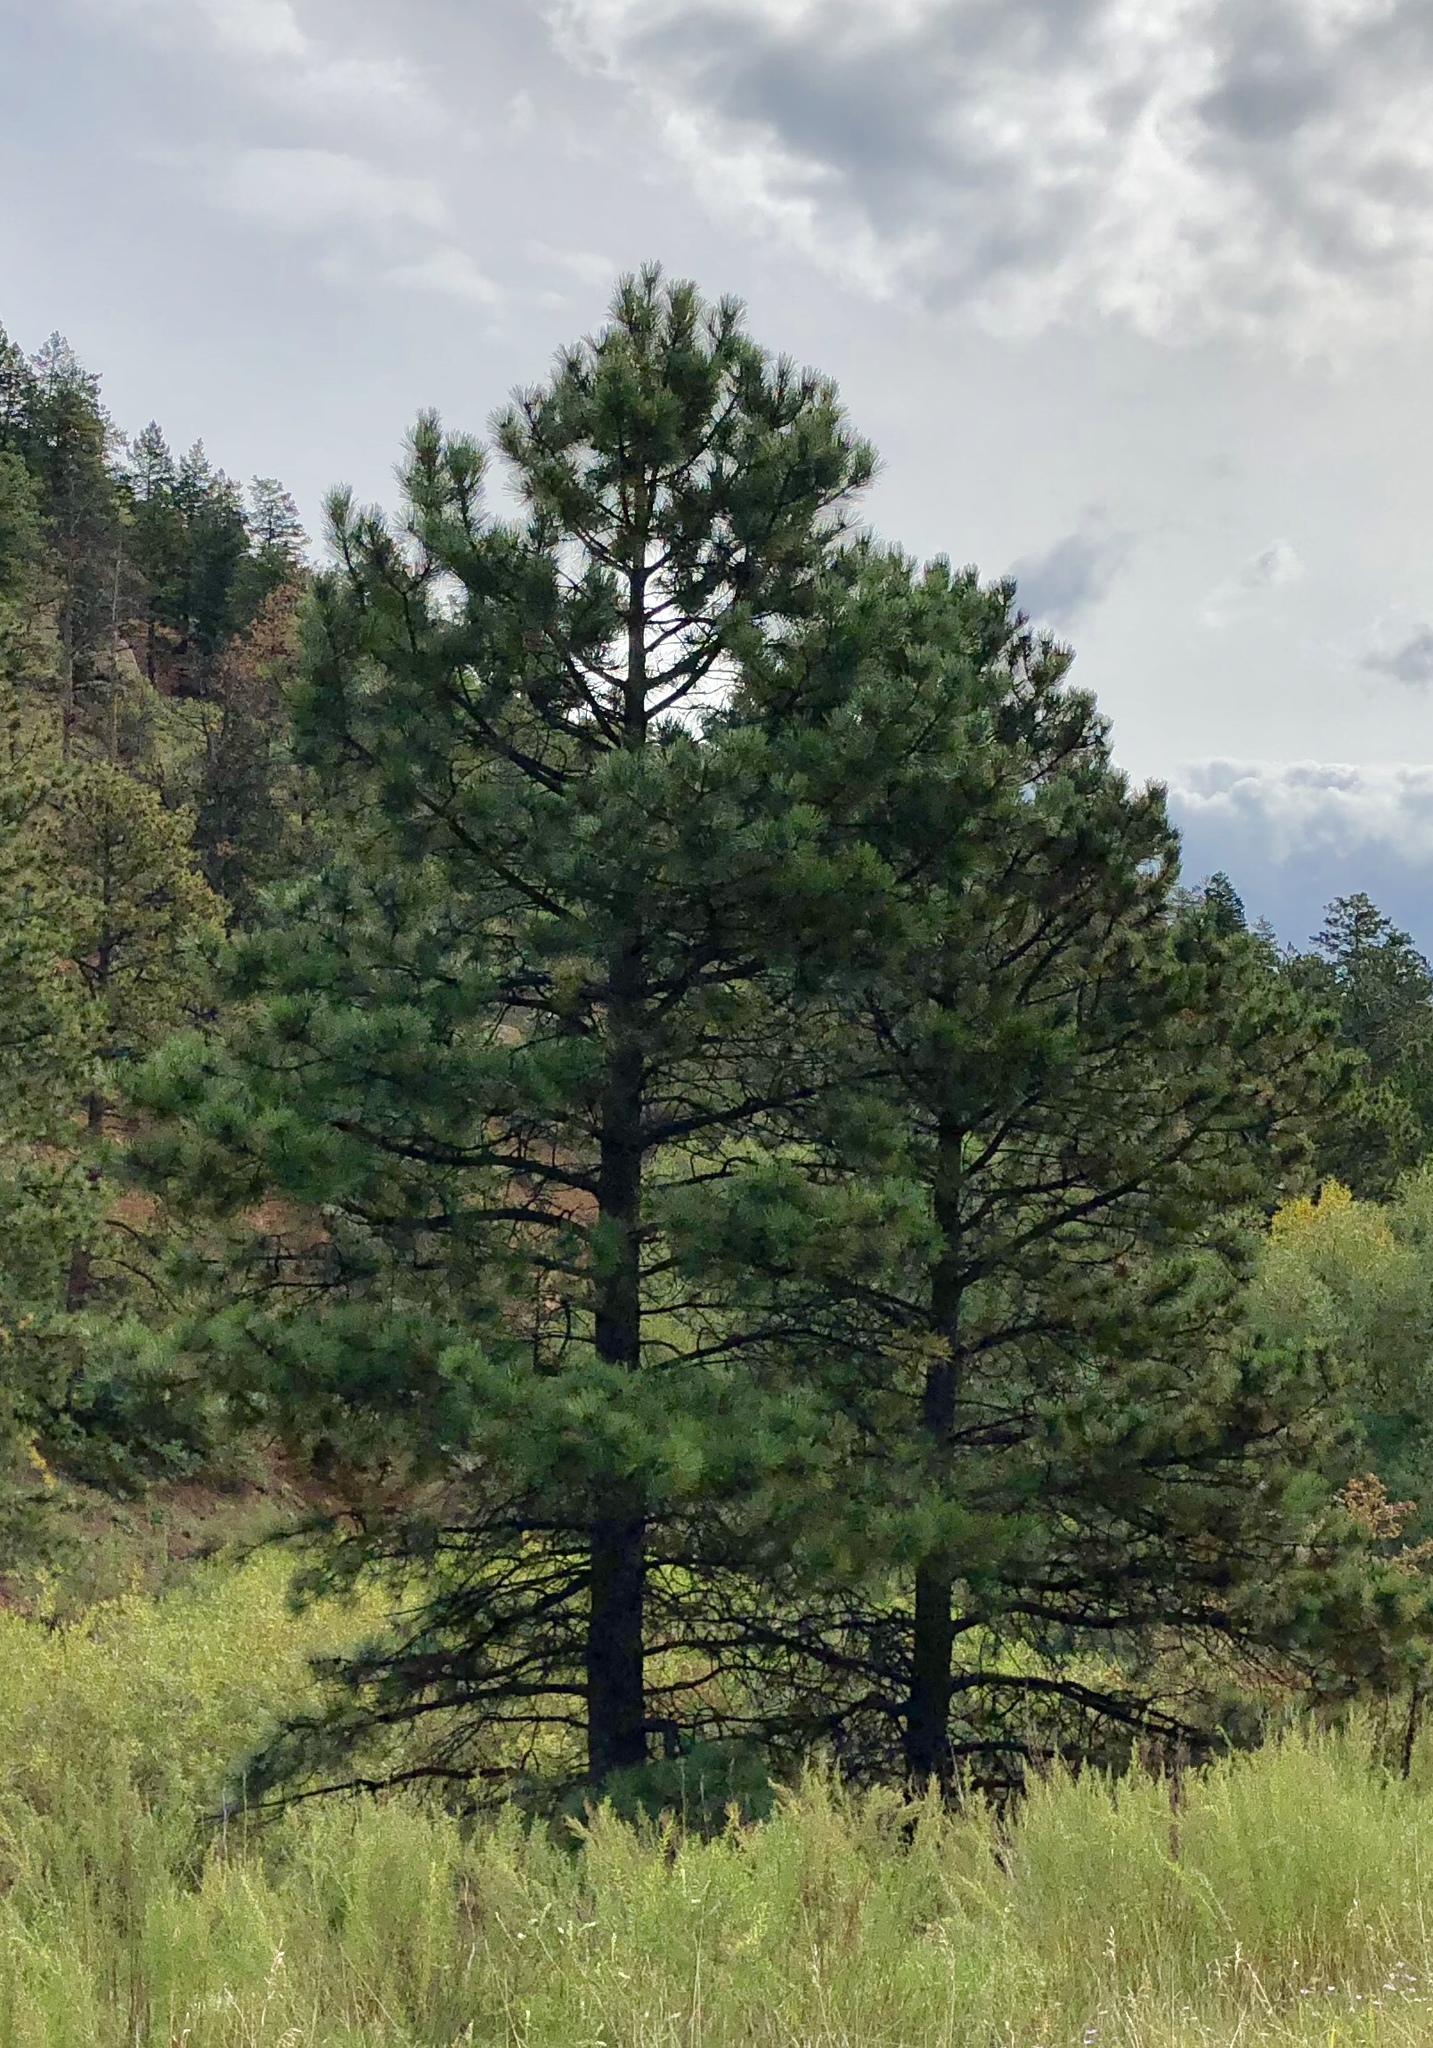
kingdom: Plantae
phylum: Tracheophyta
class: Pinopsida
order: Pinales
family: Pinaceae
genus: Pinus
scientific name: Pinus ponderosa
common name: Western yellow-pine
